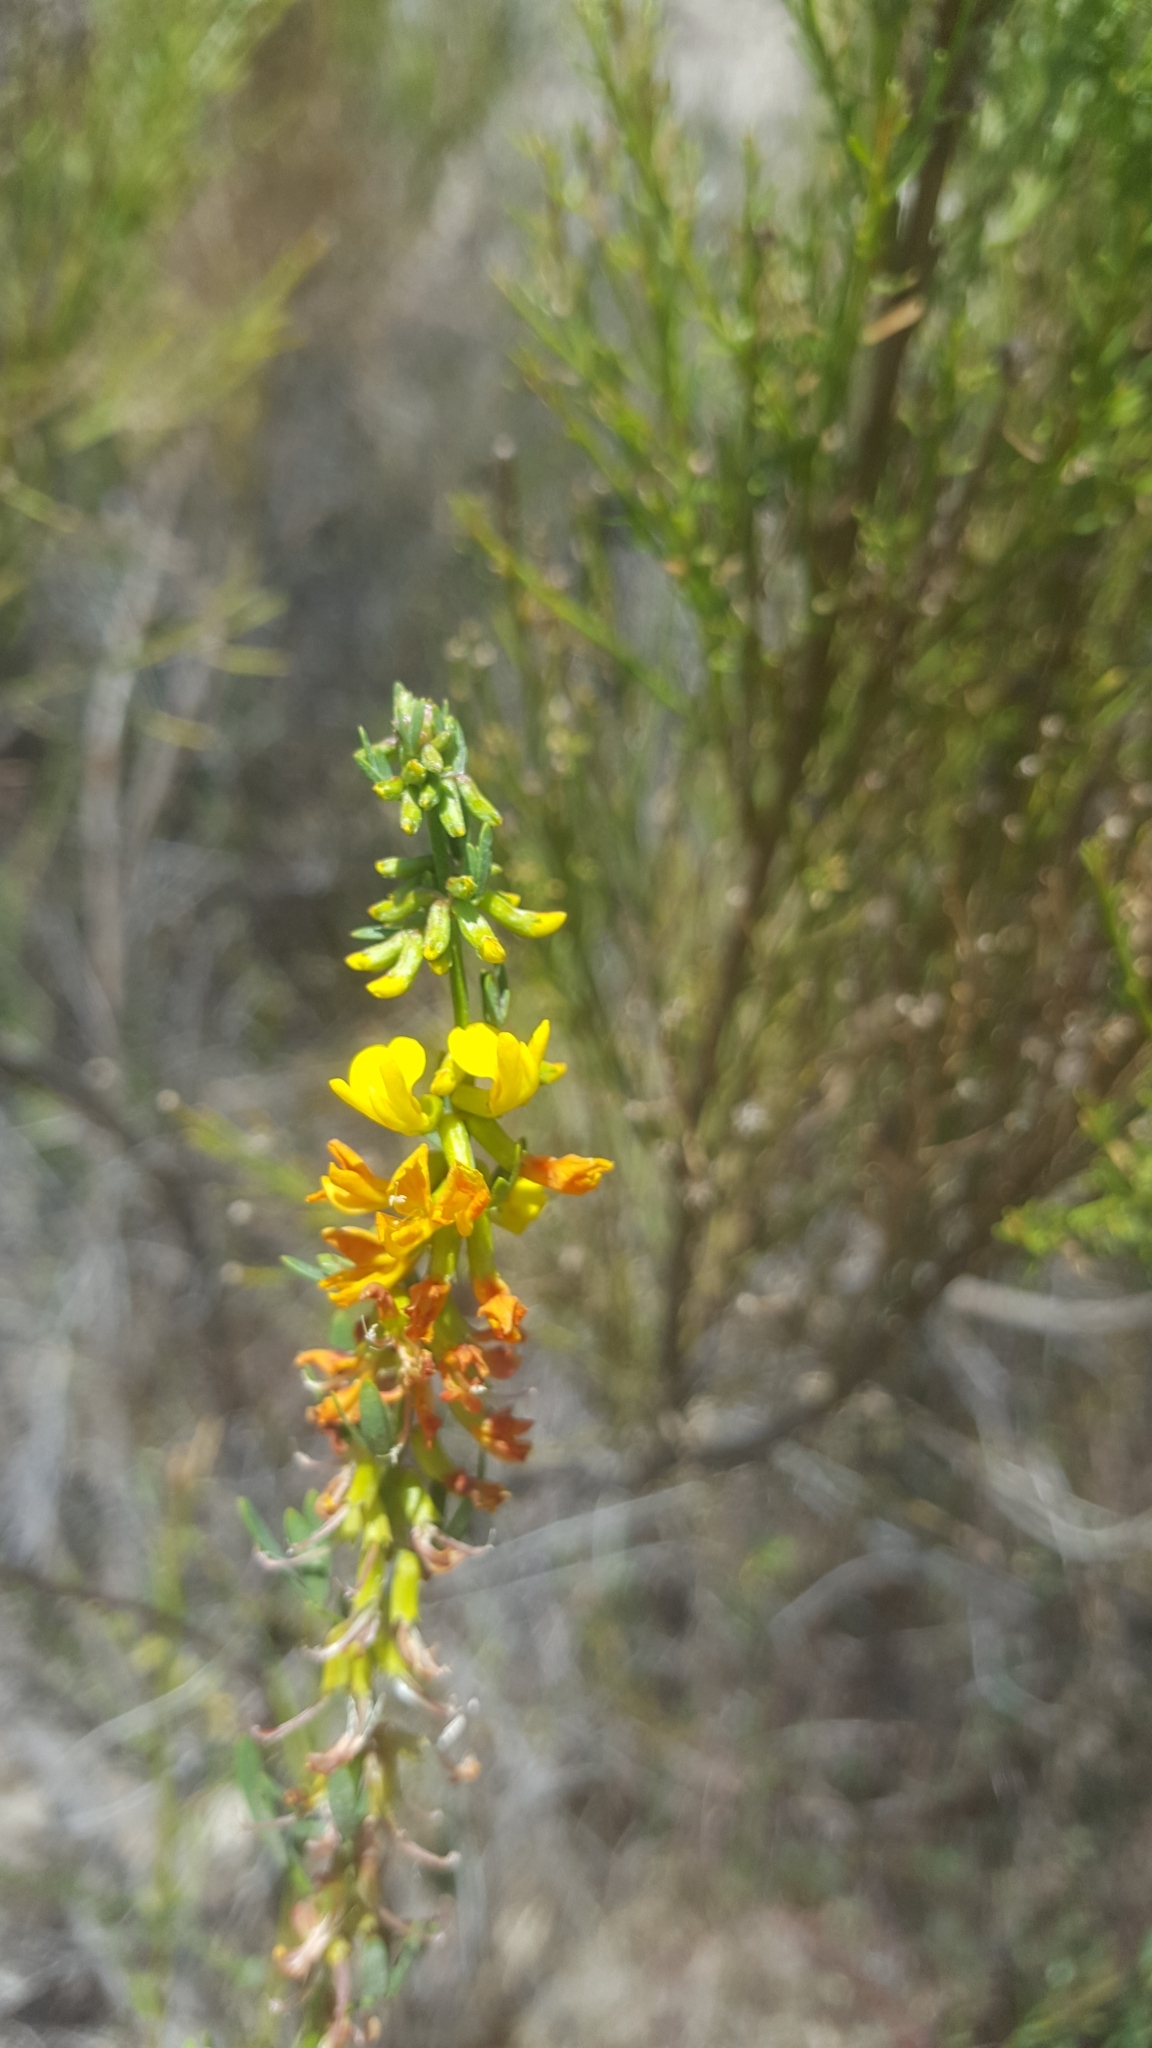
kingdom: Plantae
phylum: Tracheophyta
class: Magnoliopsida
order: Fabales
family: Fabaceae
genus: Acmispon
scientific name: Acmispon glaber
